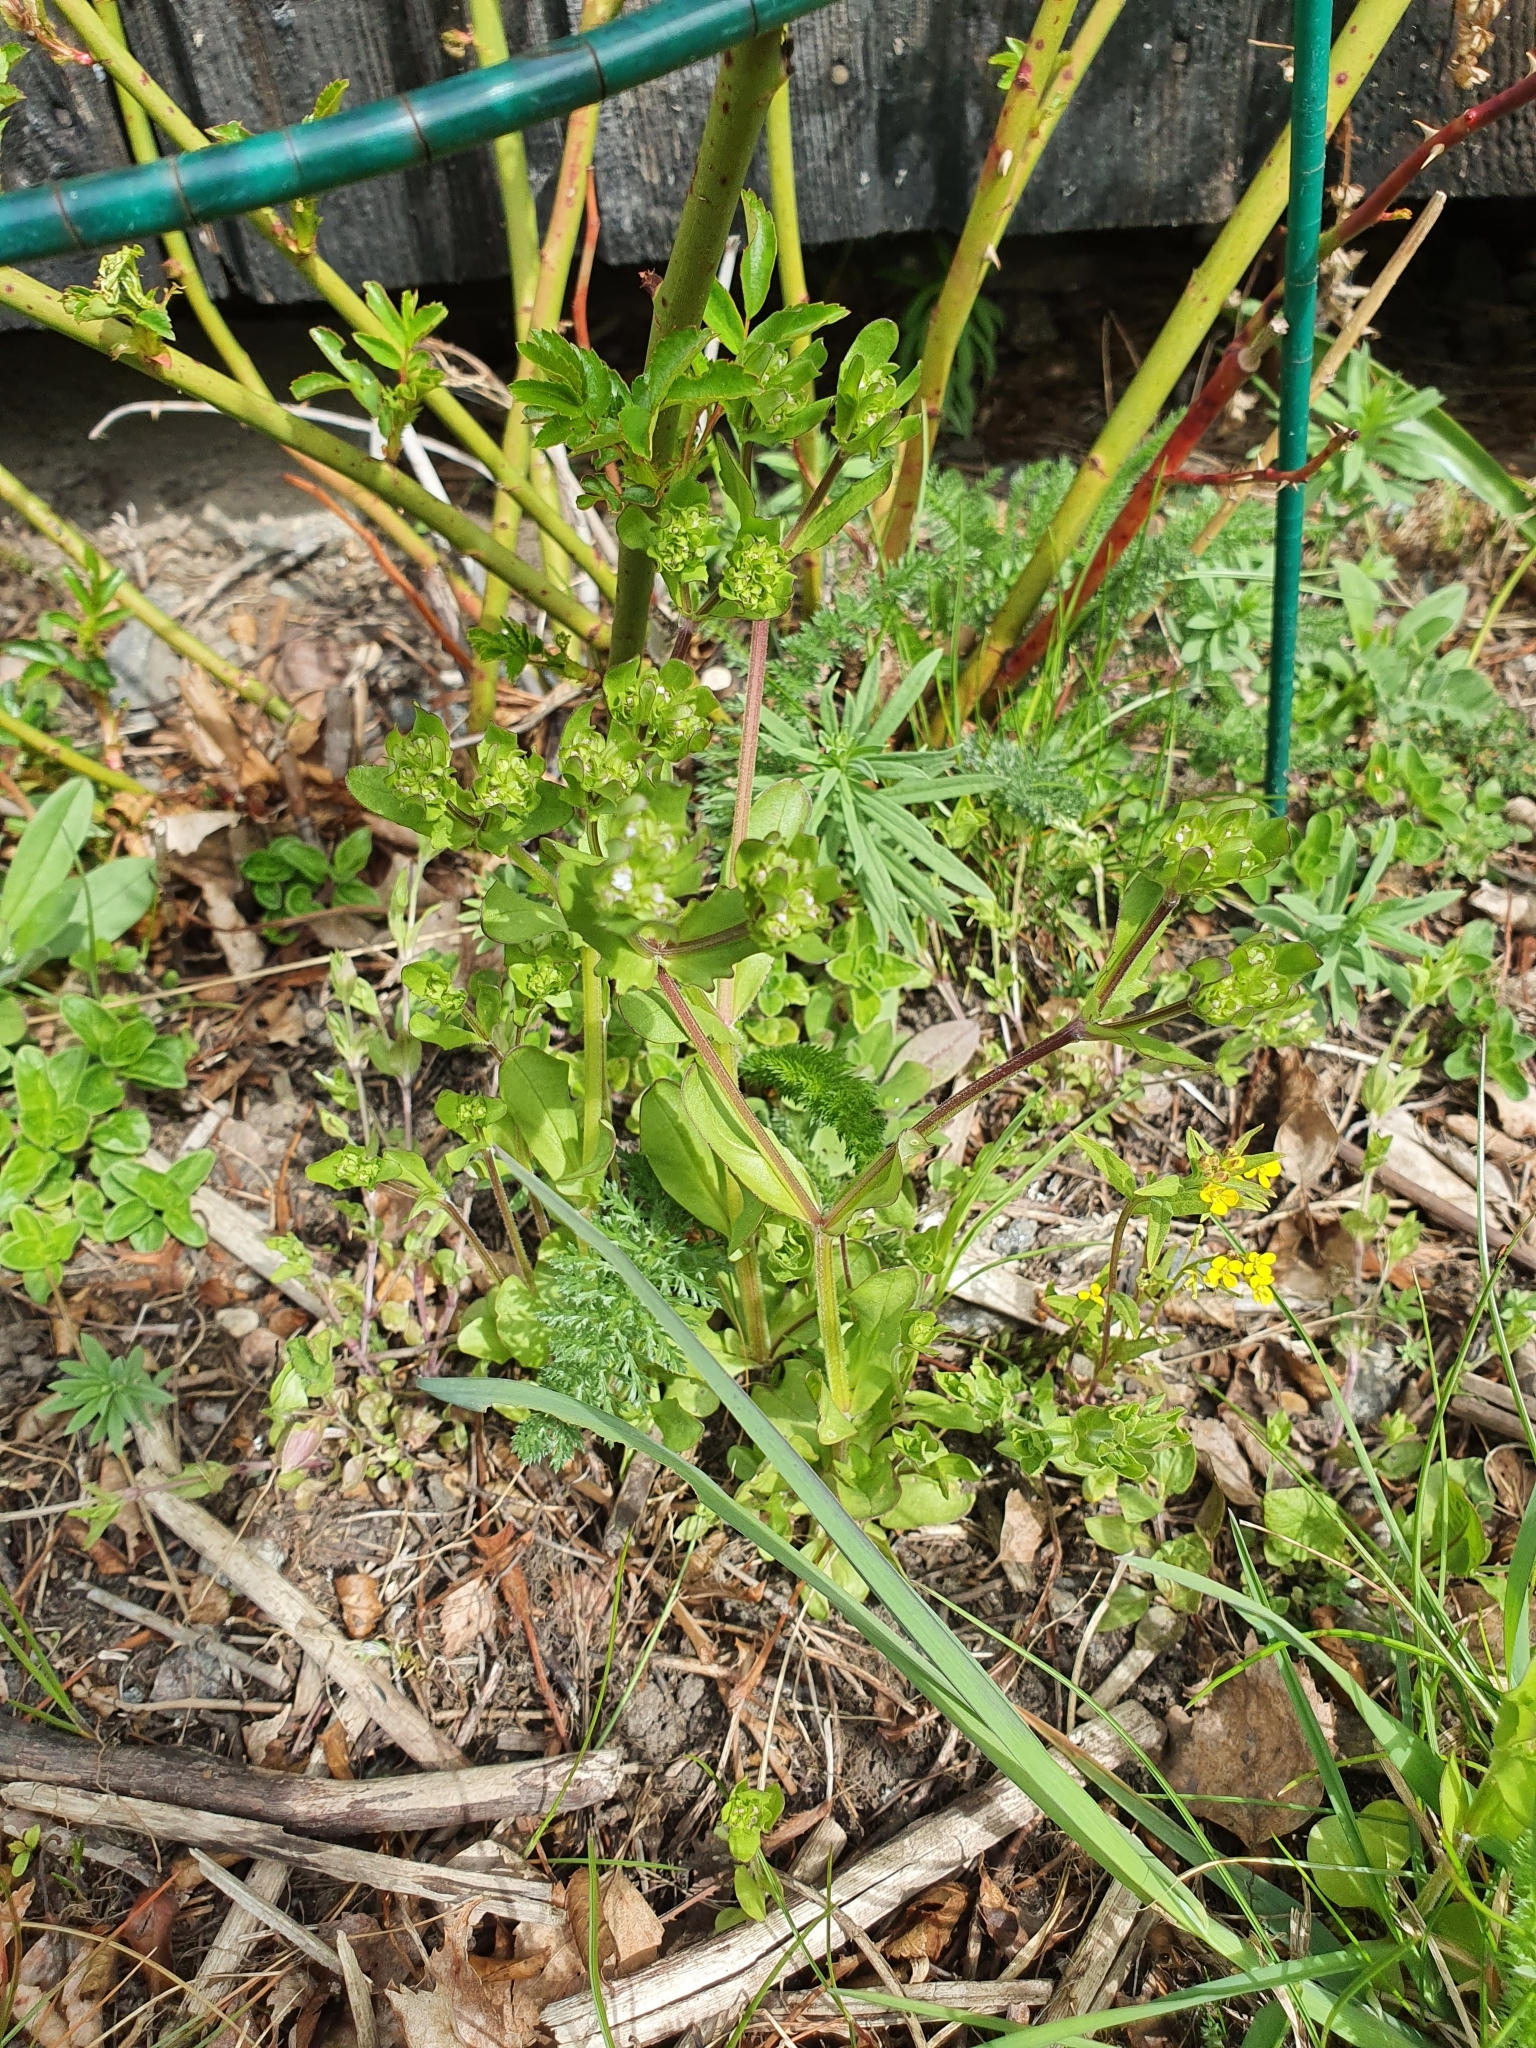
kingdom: Plantae
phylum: Tracheophyta
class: Magnoliopsida
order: Dipsacales
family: Caprifoliaceae
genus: Valerianella
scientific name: Valerianella locusta
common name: Common cornsalad
